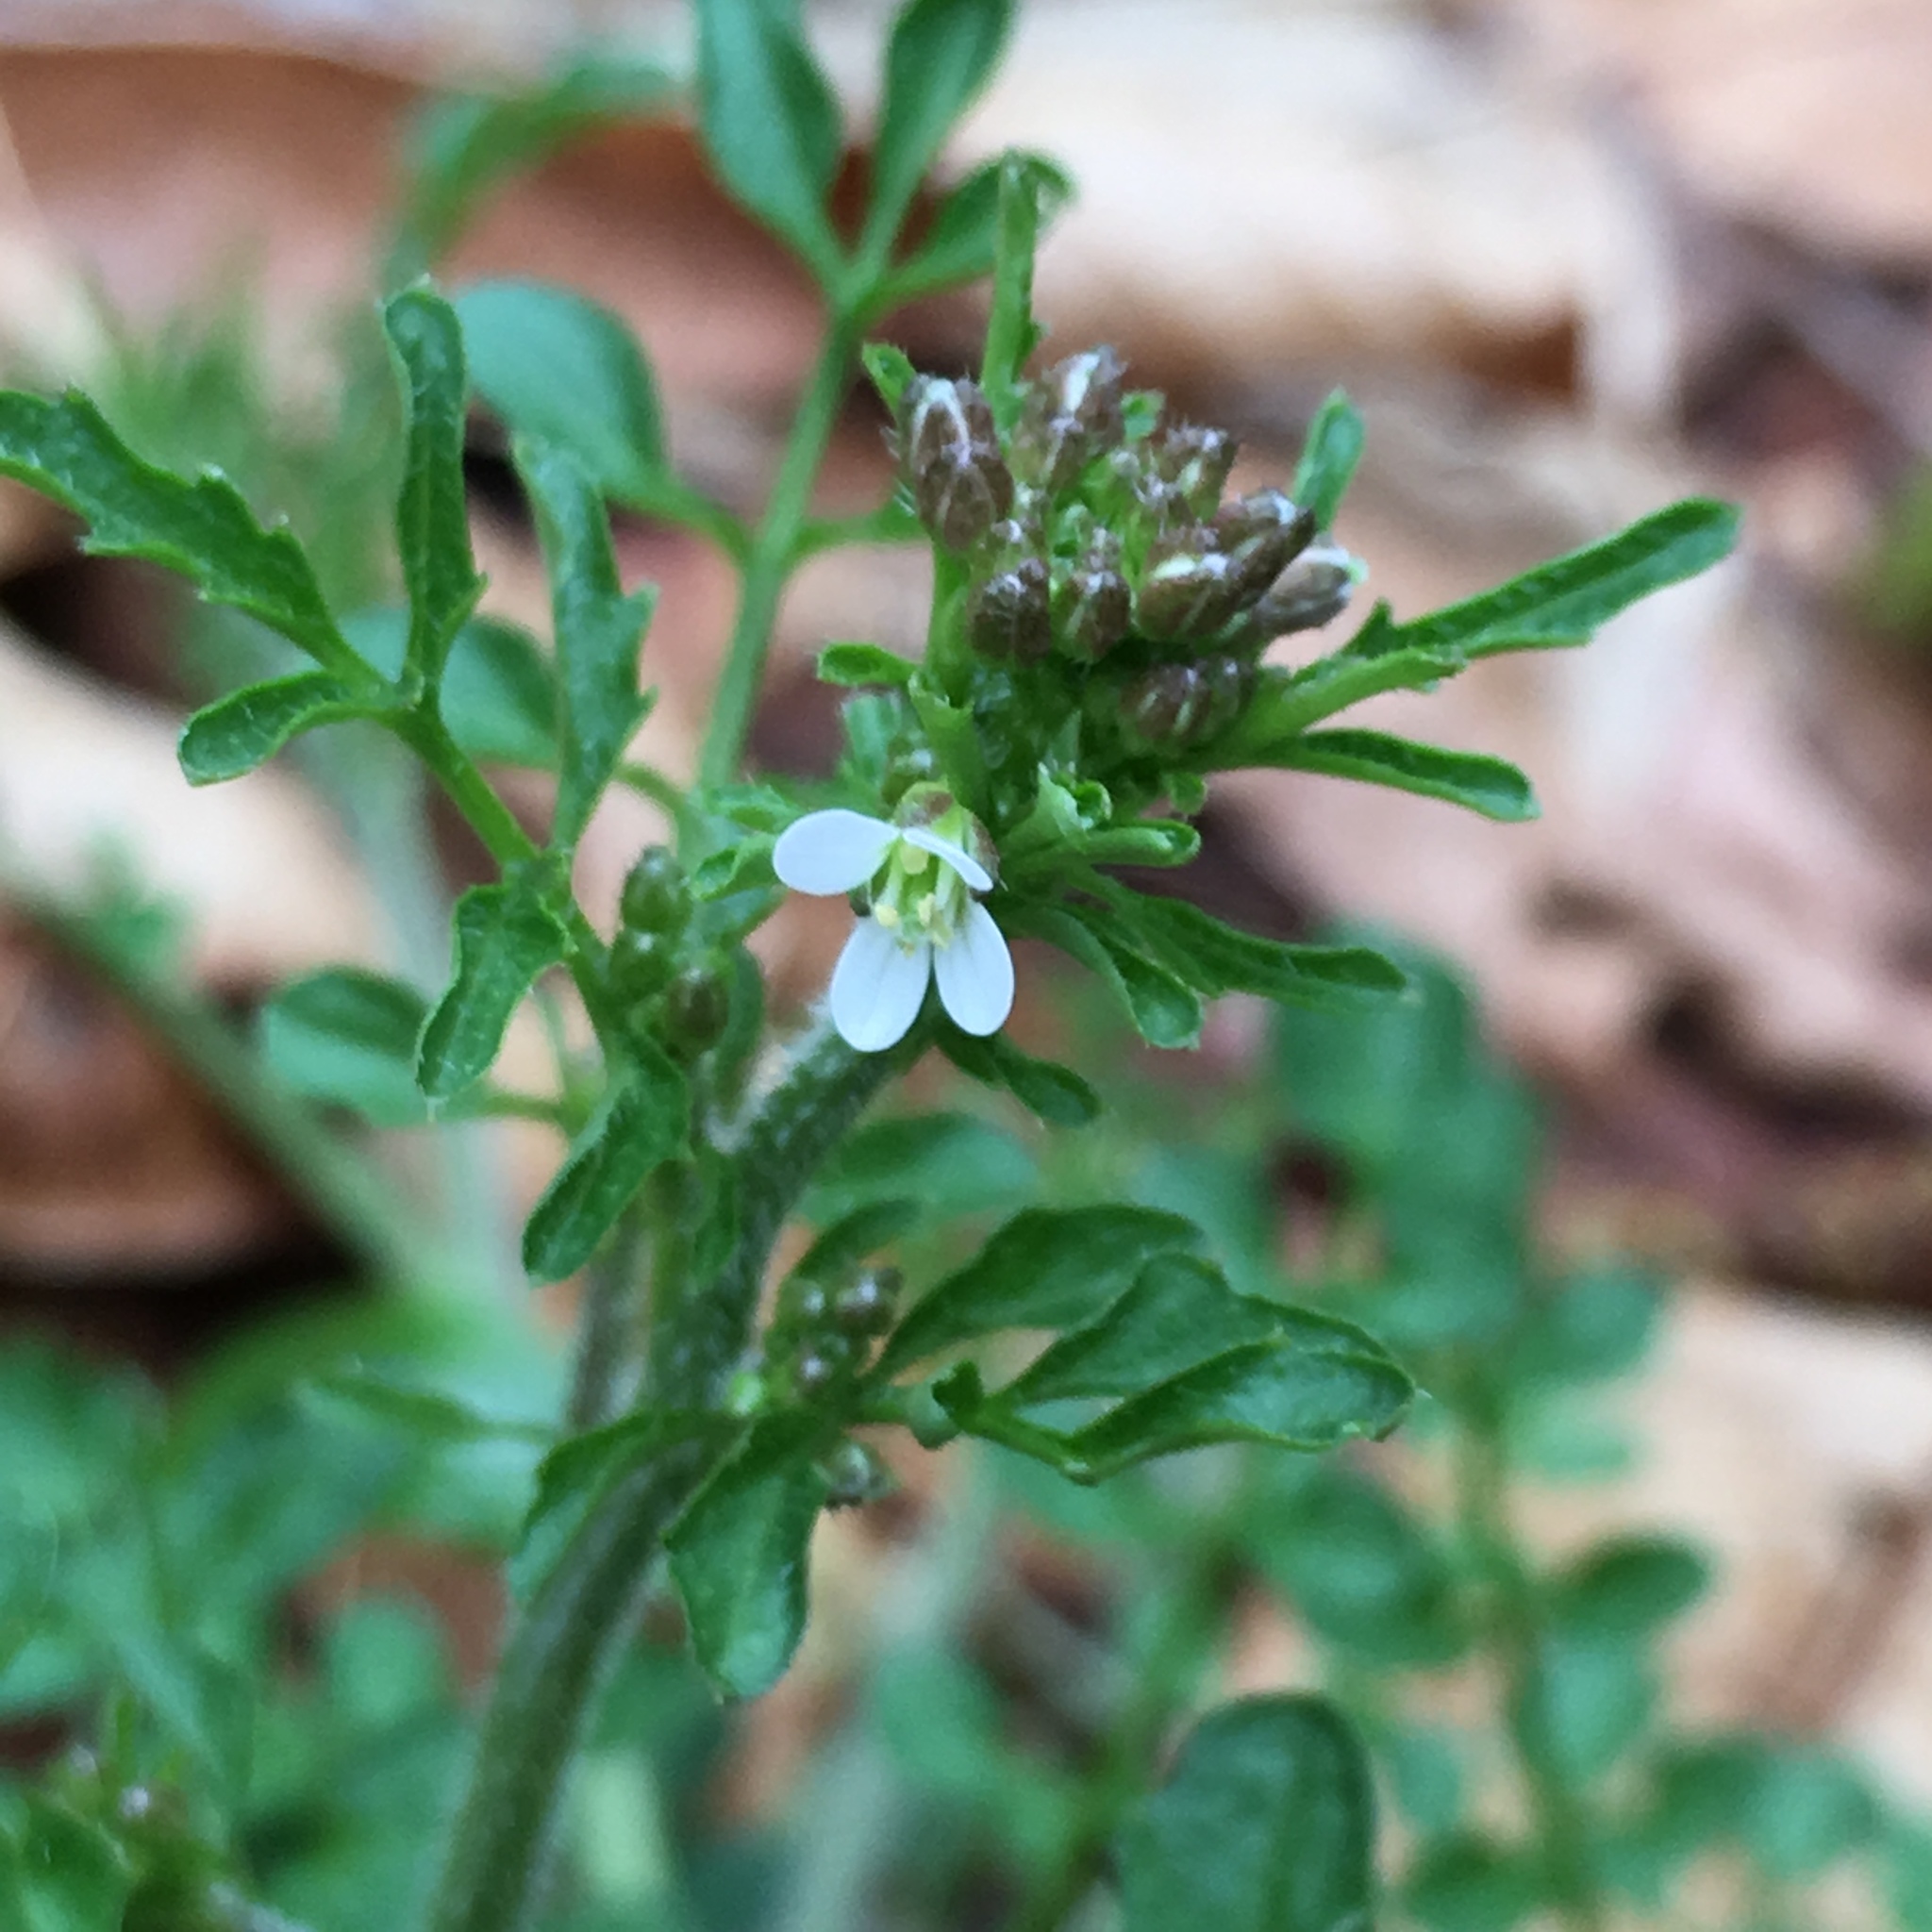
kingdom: Plantae
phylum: Tracheophyta
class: Magnoliopsida
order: Brassicales
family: Brassicaceae
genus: Cardamine
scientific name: Cardamine flexuosa
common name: Woodland bittercress
